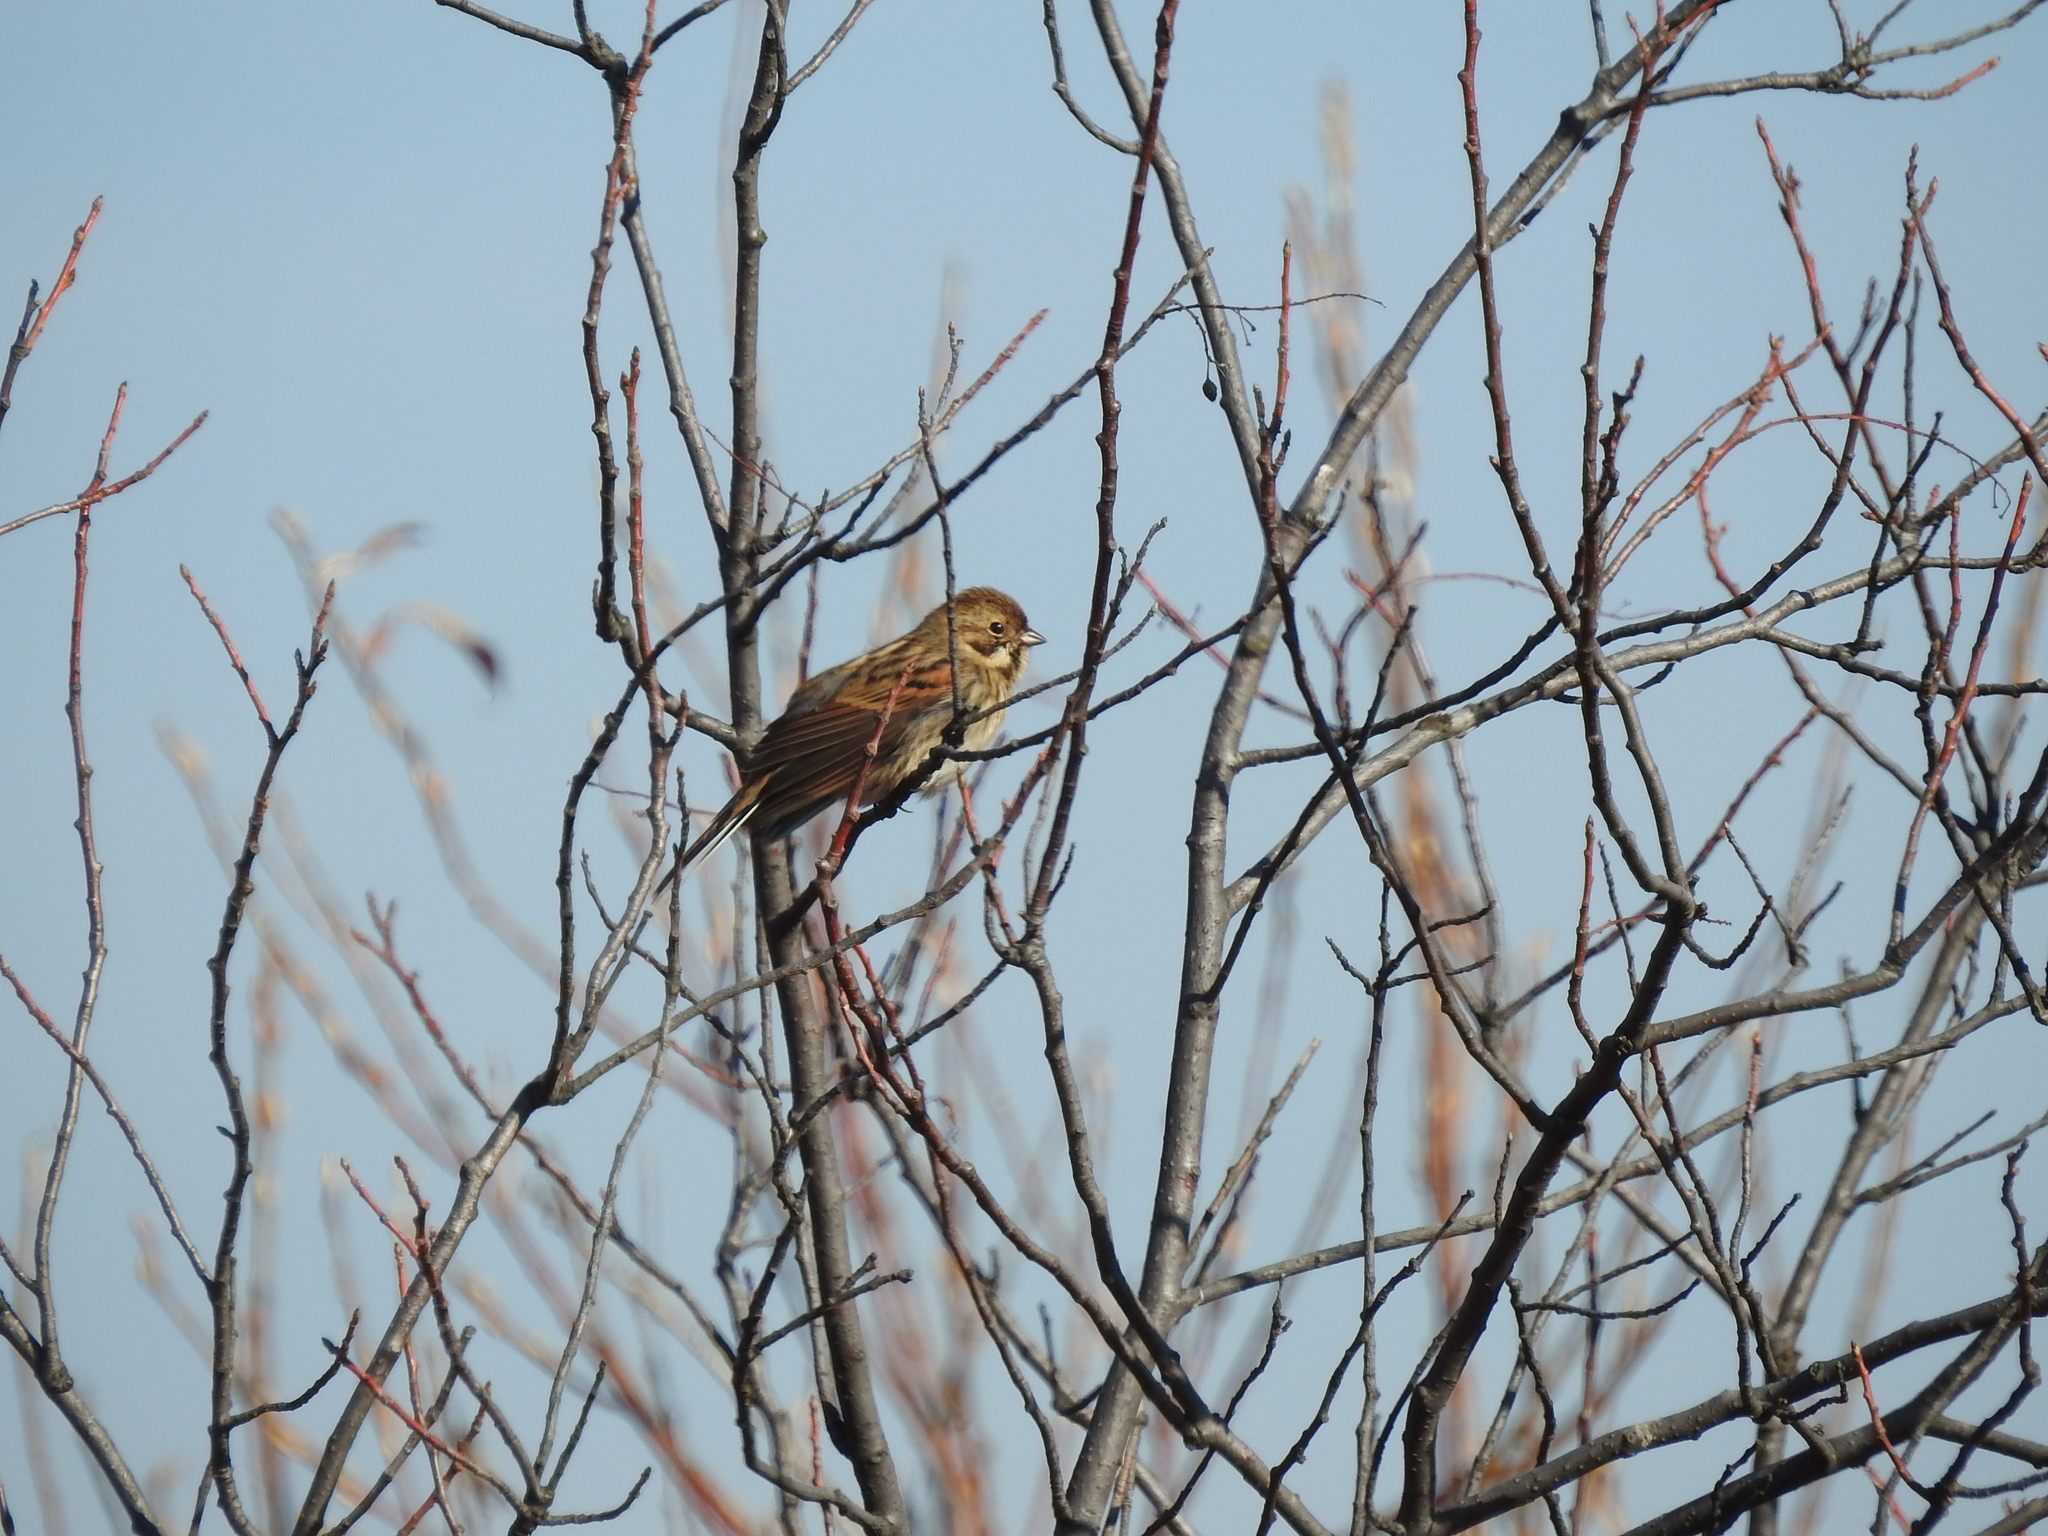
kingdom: Animalia
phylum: Chordata
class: Aves
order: Passeriformes
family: Emberizidae
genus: Emberiza
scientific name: Emberiza schoeniclus
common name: Reed bunting
